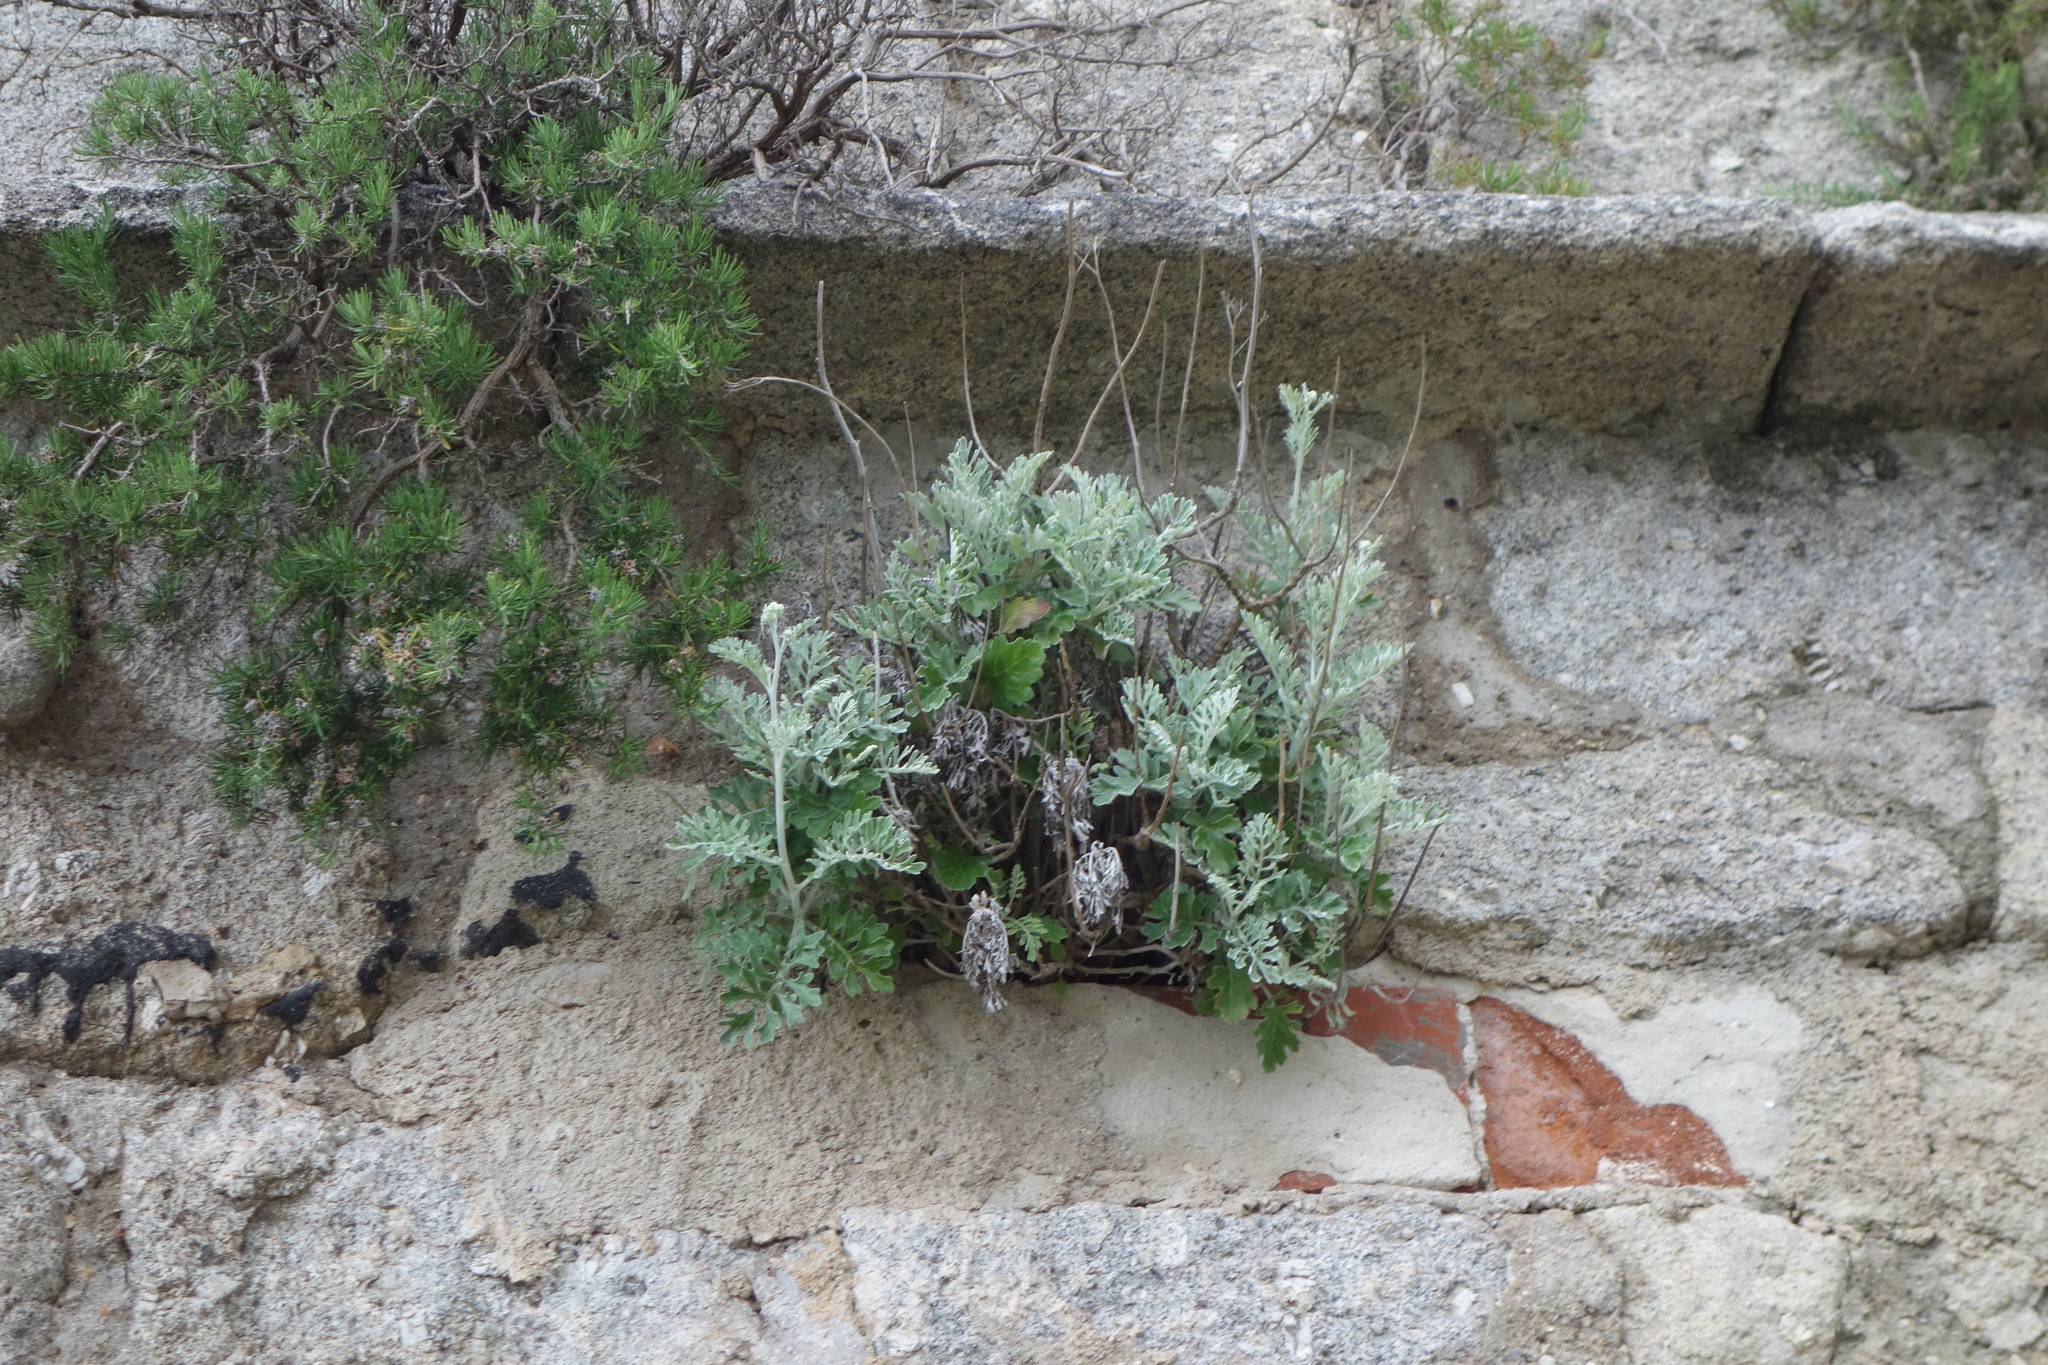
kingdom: Plantae
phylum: Tracheophyta
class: Magnoliopsida
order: Asterales
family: Asteraceae
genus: Jacobaea
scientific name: Jacobaea maritima
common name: Silver ragwort
